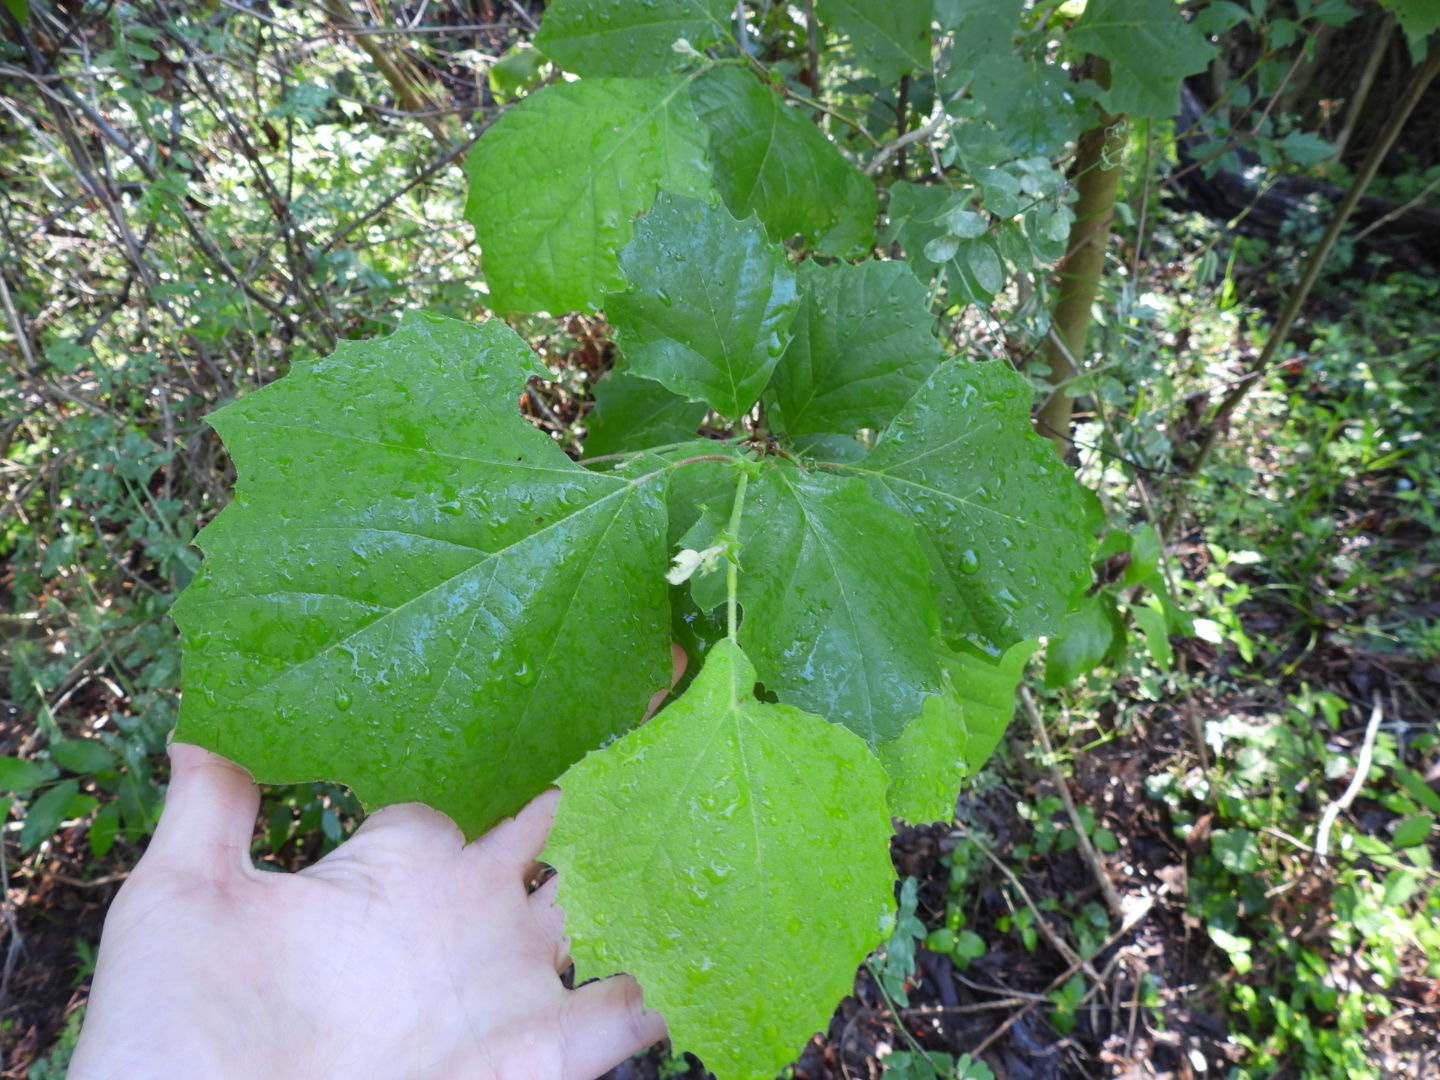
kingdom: Plantae
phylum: Tracheophyta
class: Magnoliopsida
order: Proteales
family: Platanaceae
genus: Platanus
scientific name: Platanus occidentalis
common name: American sycamore
